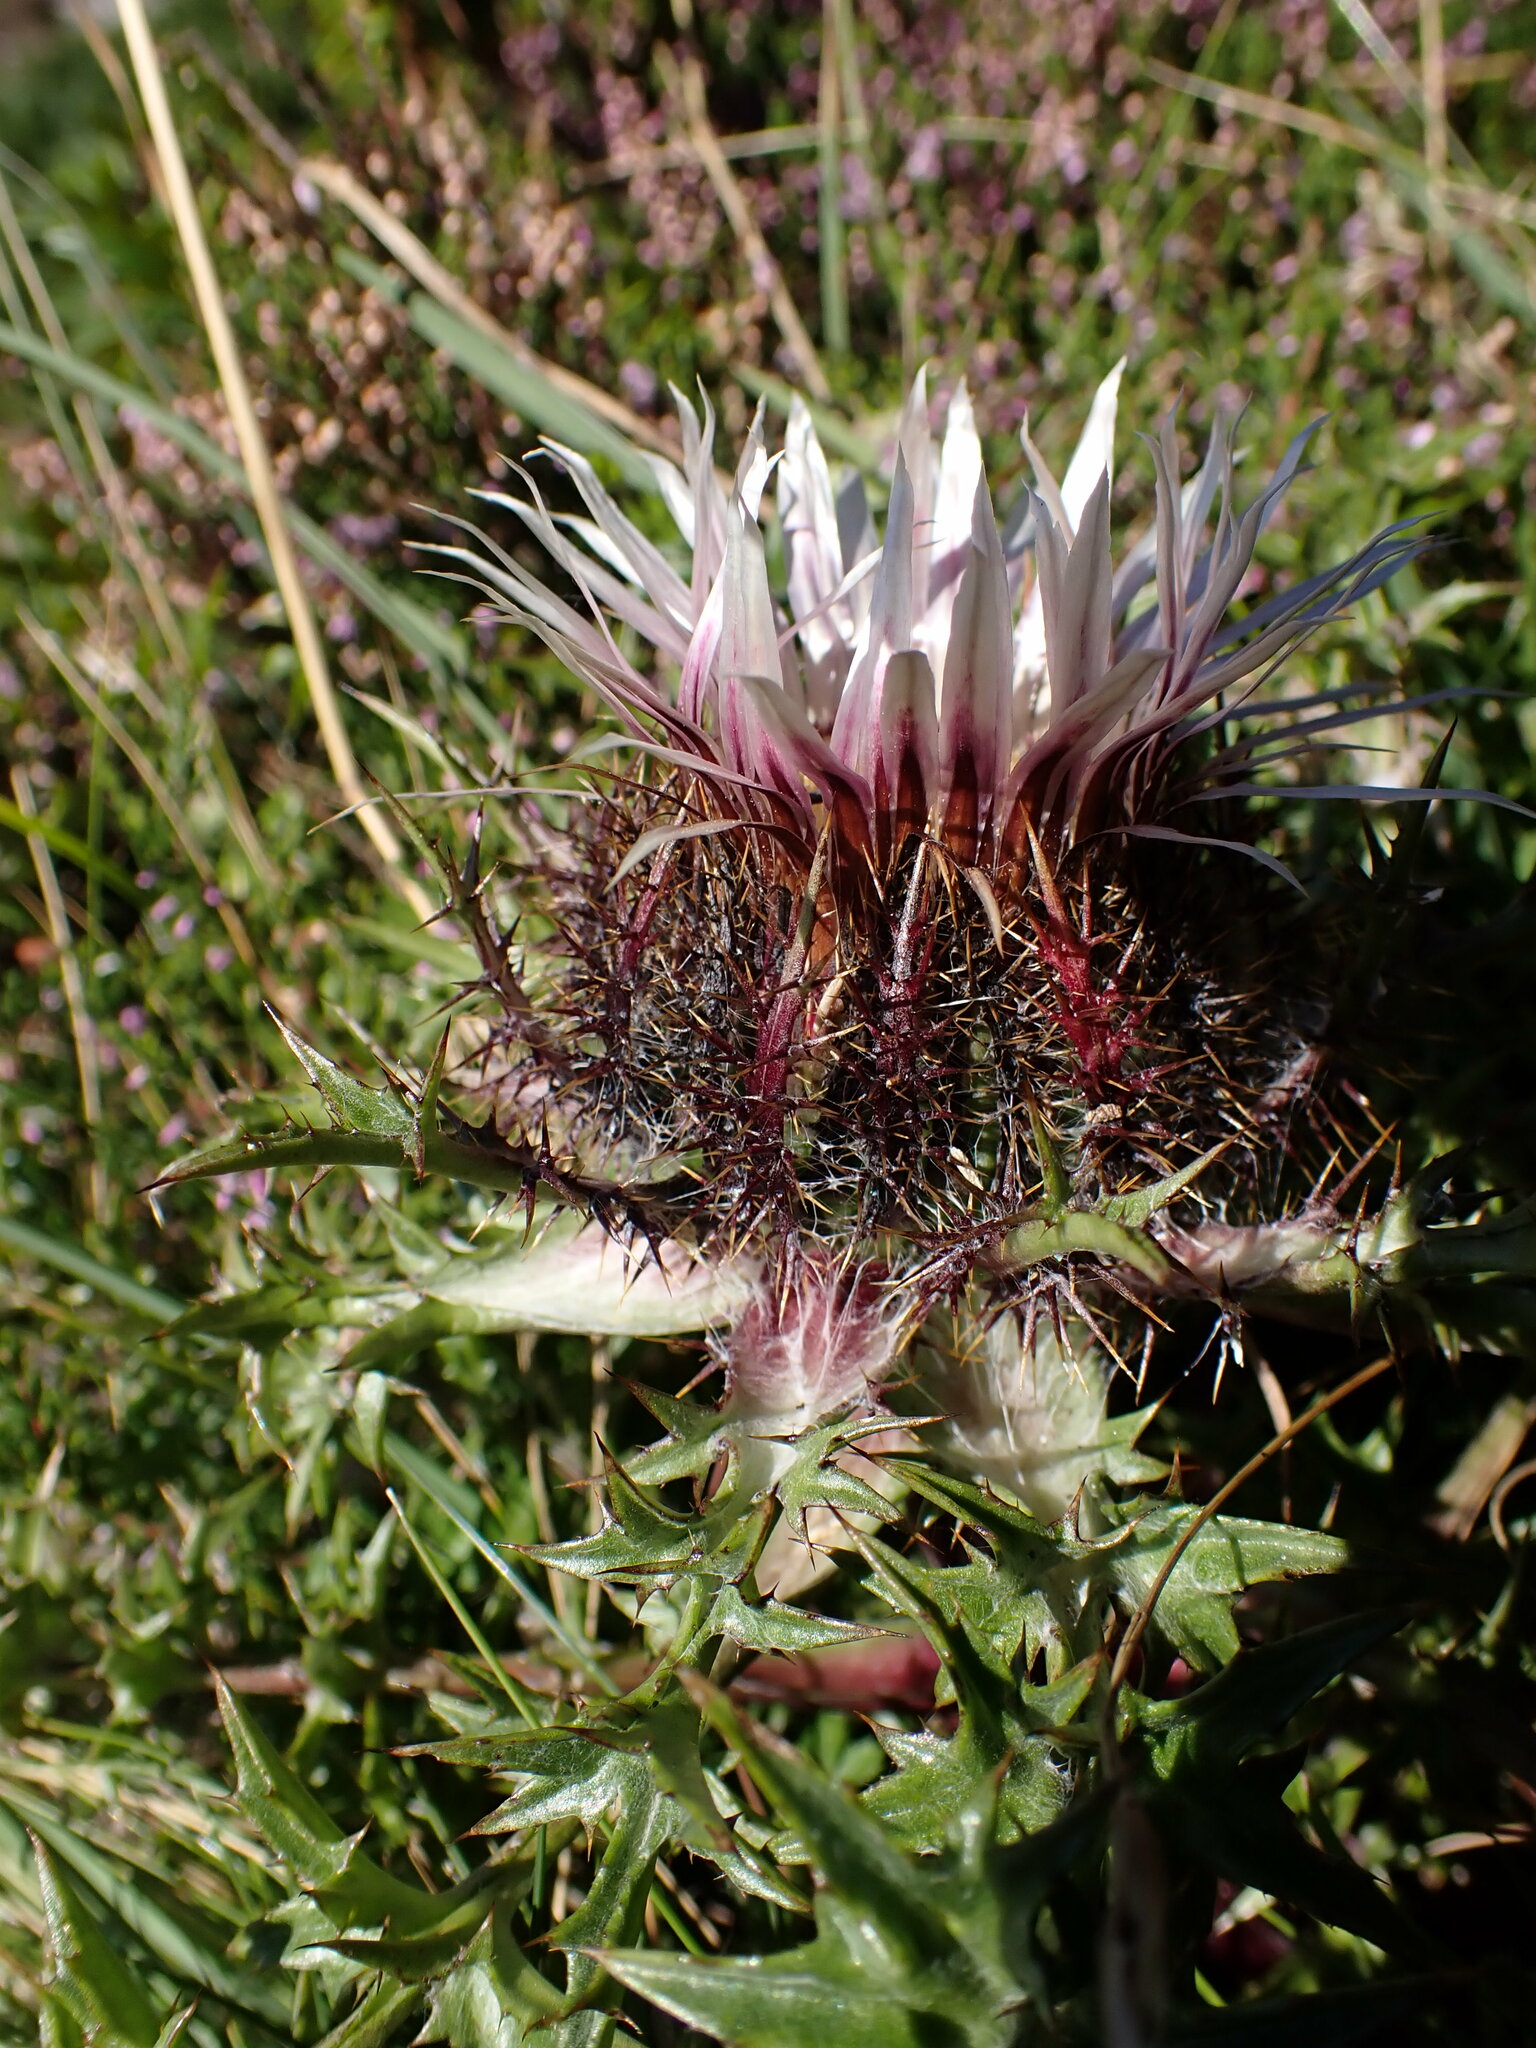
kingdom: Plantae
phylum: Tracheophyta
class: Magnoliopsida
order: Asterales
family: Asteraceae
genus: Carlina
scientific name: Carlina acaulis
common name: Stemless carline thistle
